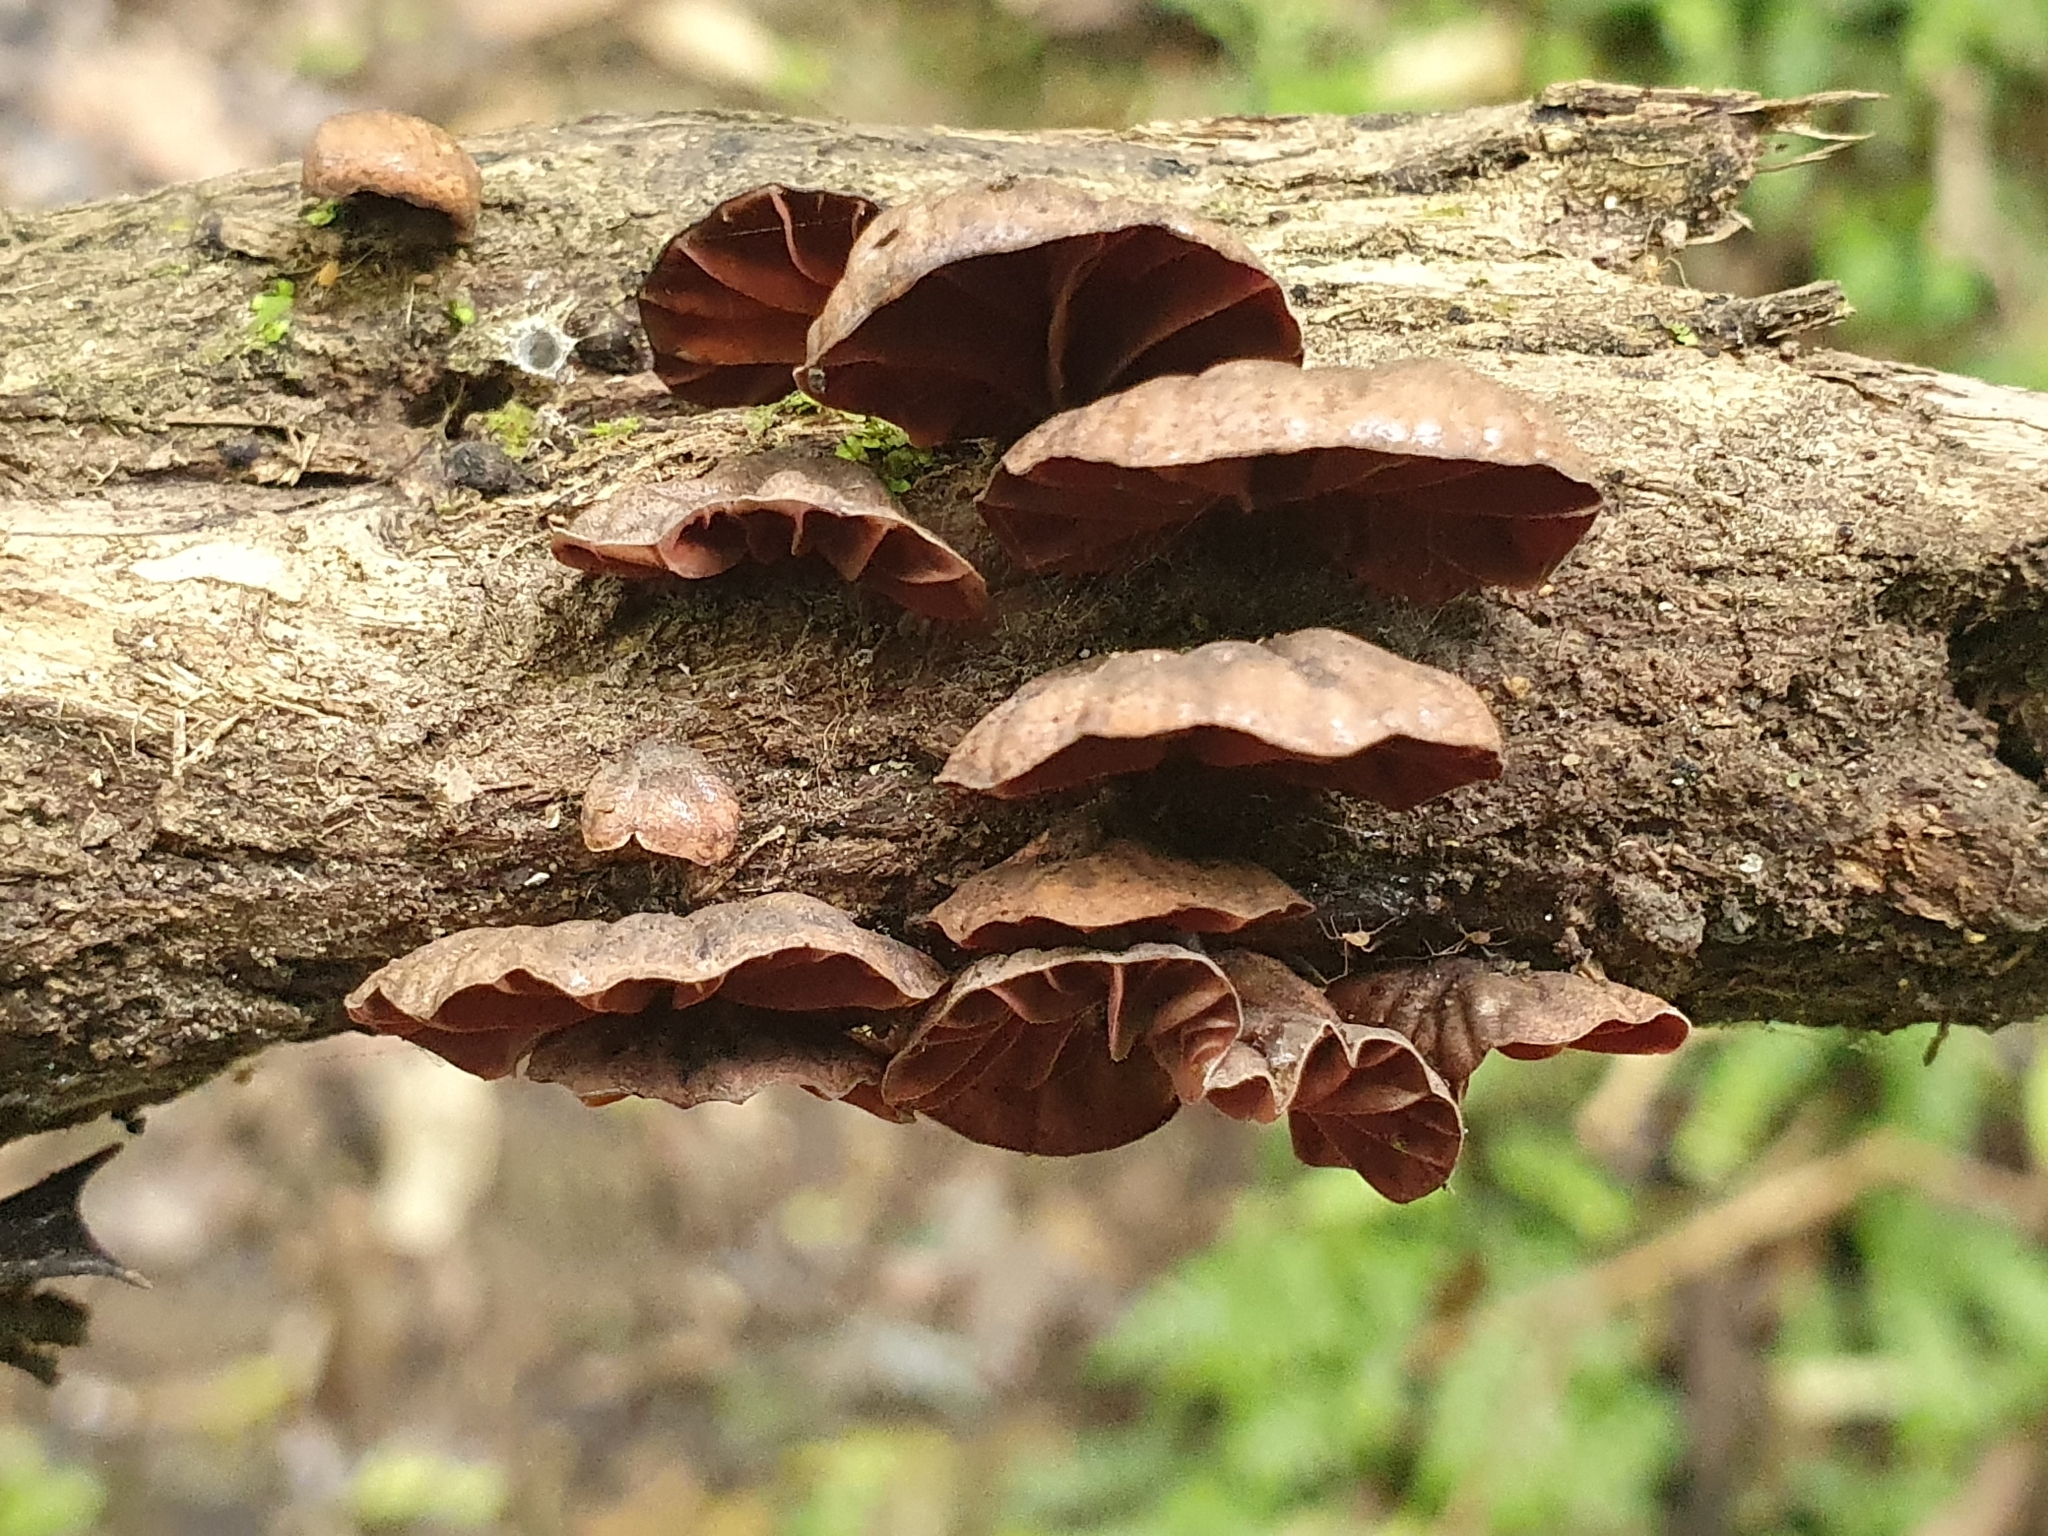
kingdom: Fungi
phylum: Basidiomycota
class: Agaricomycetes
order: Agaricales
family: Omphalotaceae
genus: Anthracophyllum
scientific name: Anthracophyllum archeri
